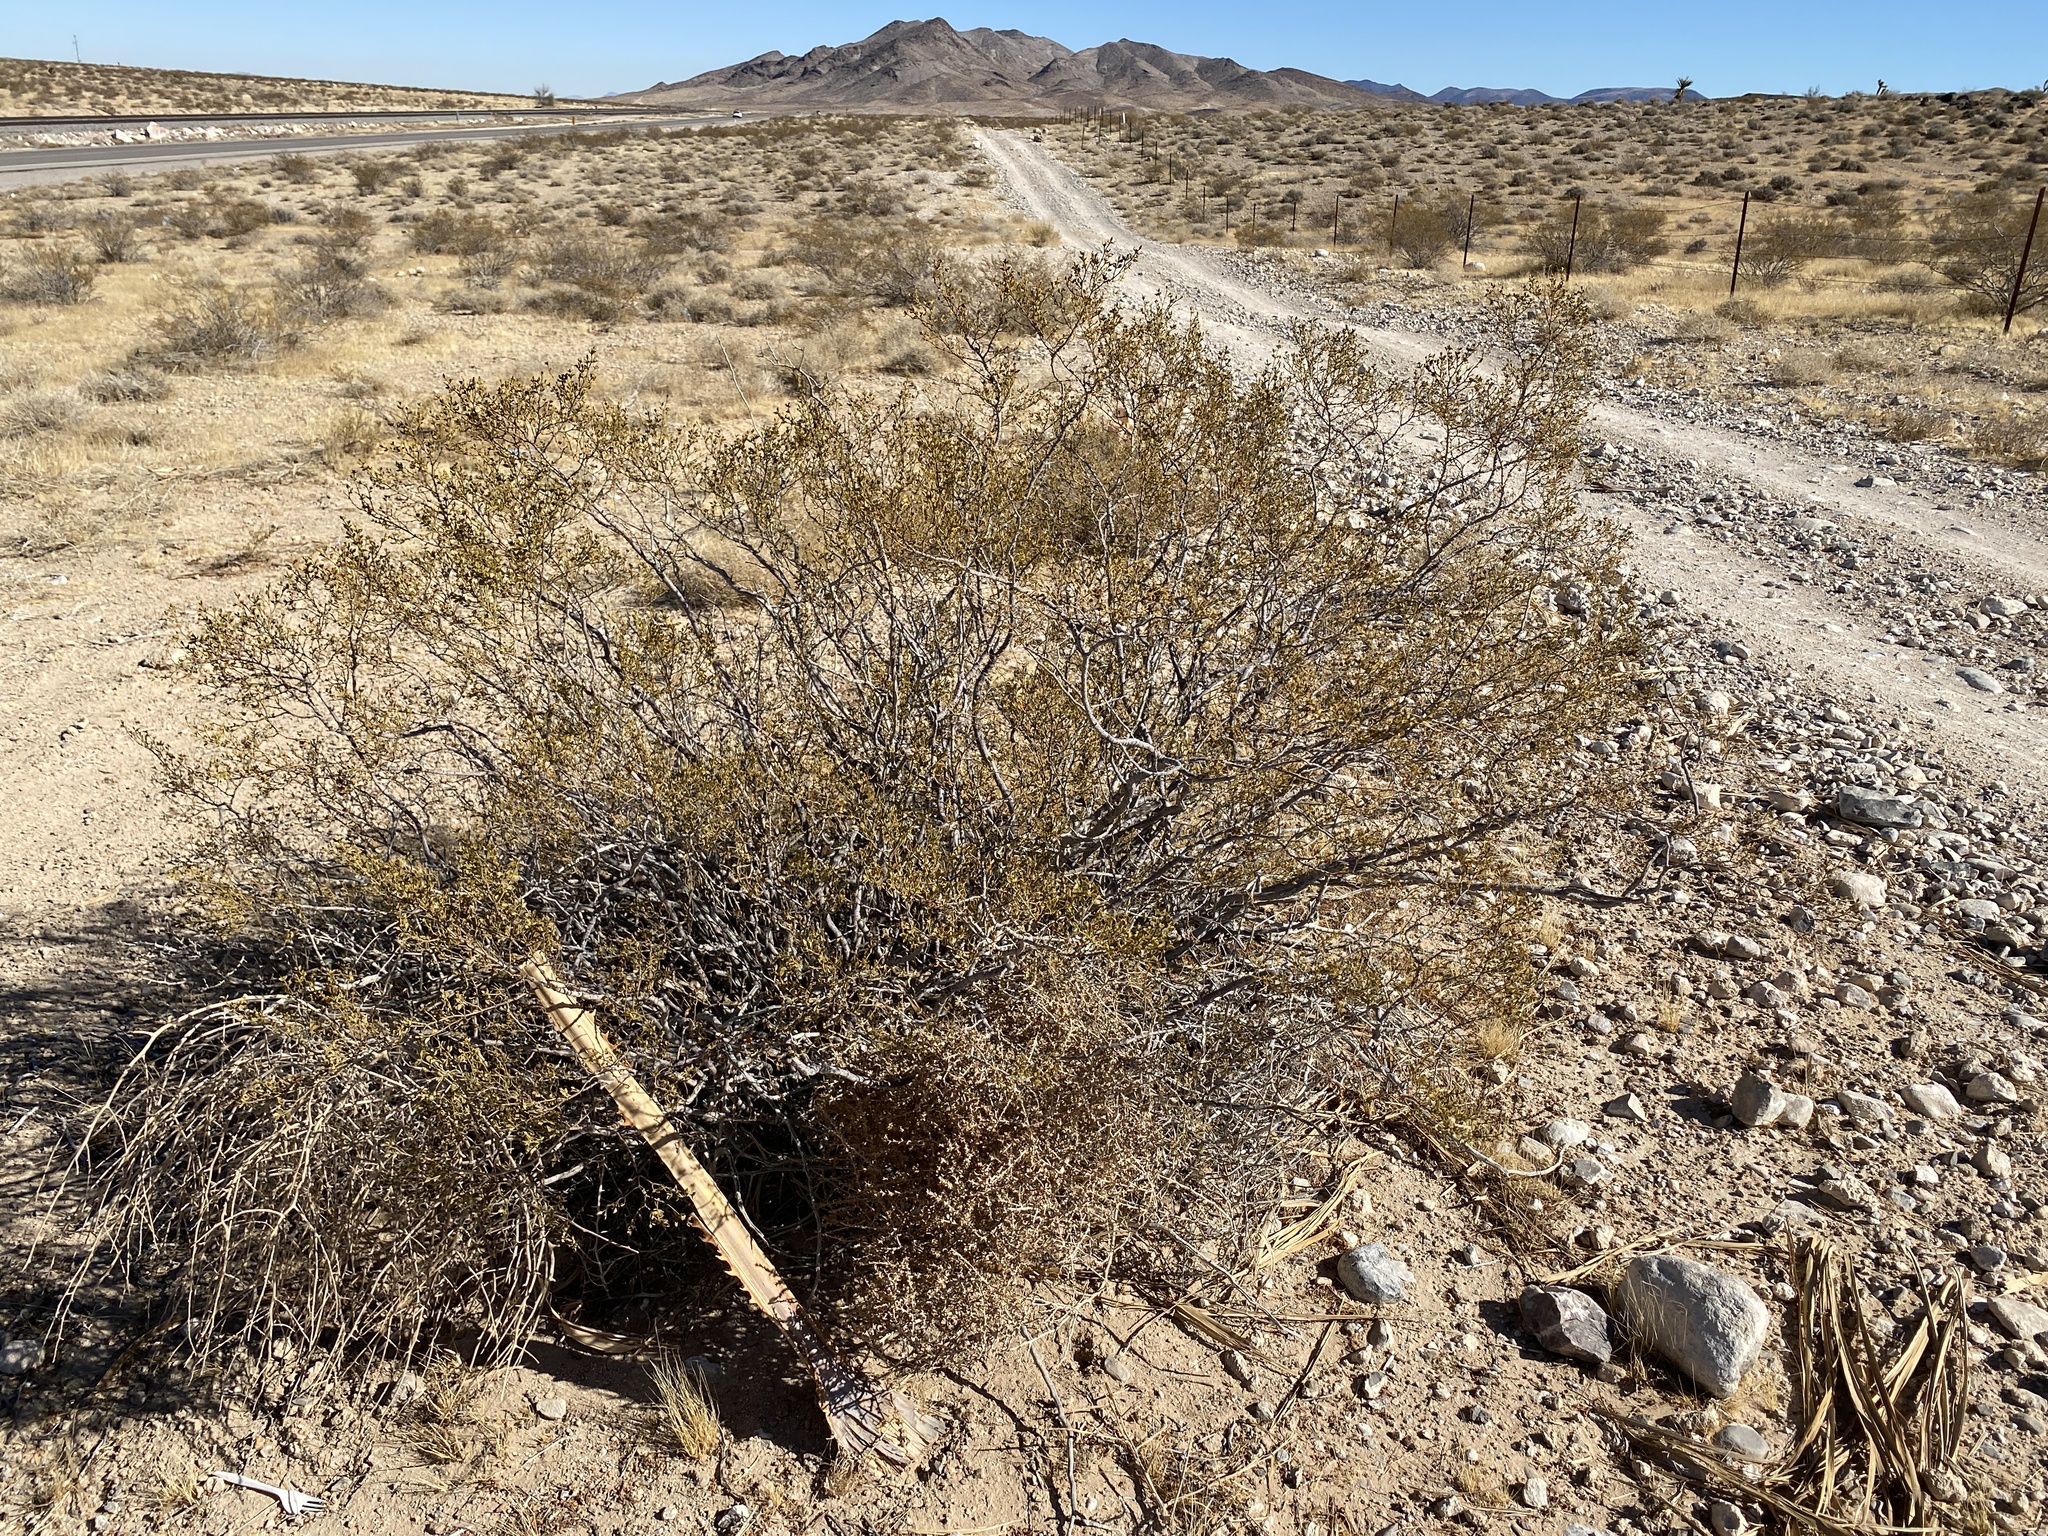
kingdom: Plantae
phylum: Tracheophyta
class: Magnoliopsida
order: Zygophyllales
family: Zygophyllaceae
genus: Larrea
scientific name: Larrea tridentata
